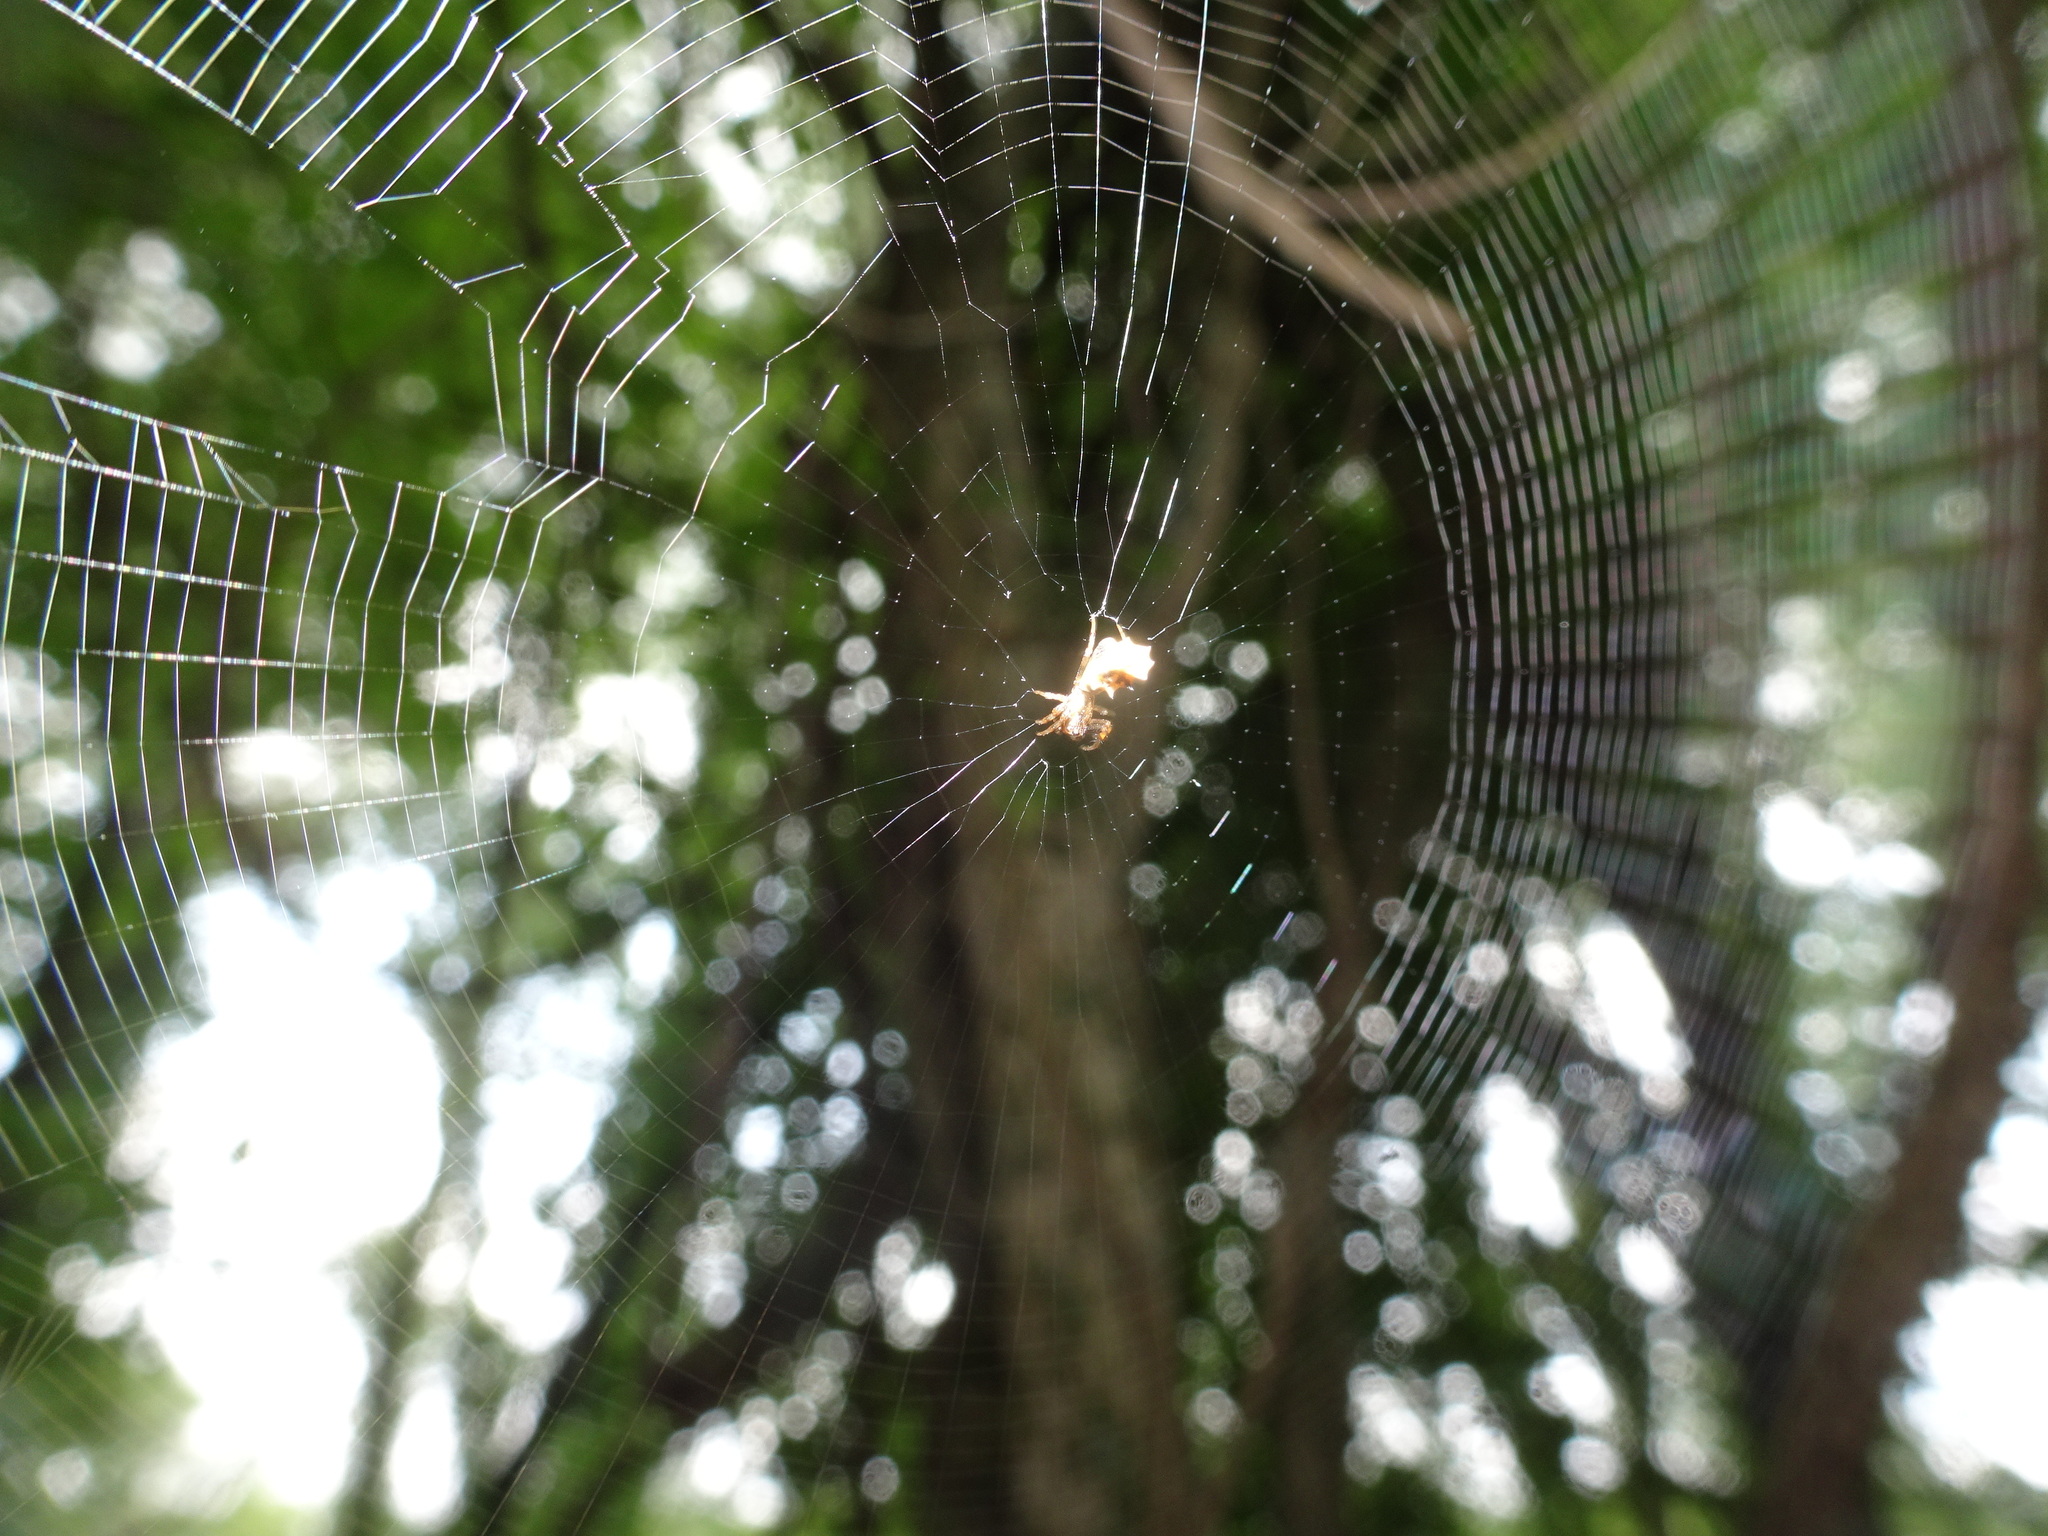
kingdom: Animalia
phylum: Arthropoda
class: Arachnida
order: Araneae
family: Araneidae
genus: Micrathena
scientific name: Micrathena gracilis
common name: Orb weavers
